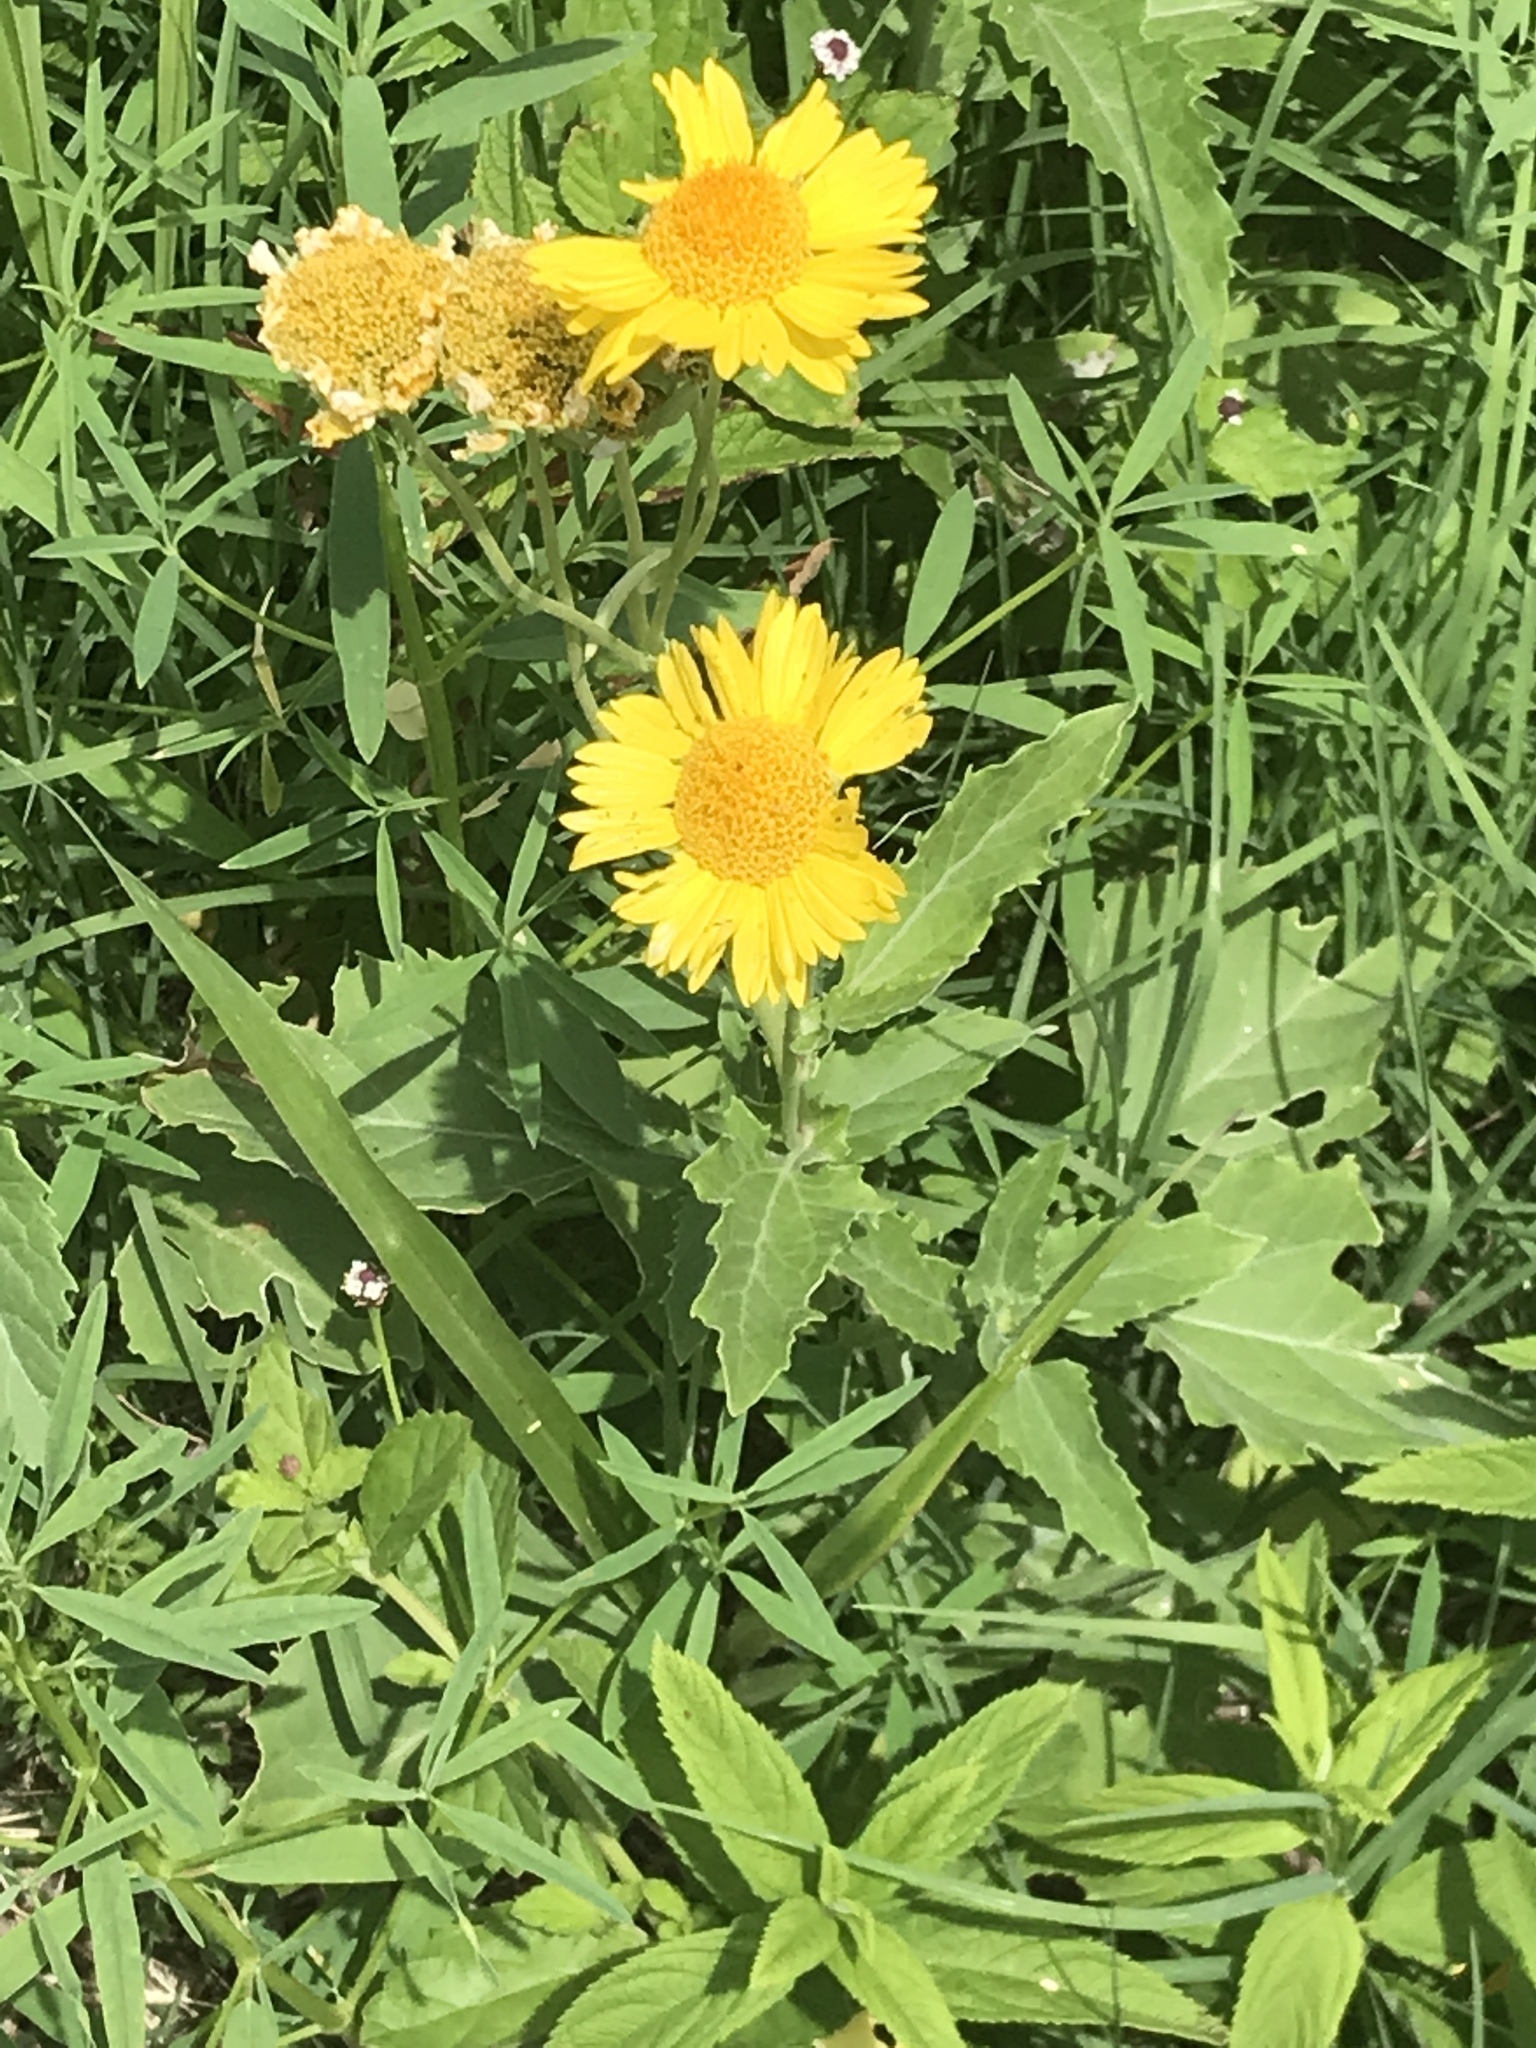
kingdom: Plantae
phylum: Tracheophyta
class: Magnoliopsida
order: Asterales
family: Asteraceae
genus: Verbesina
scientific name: Verbesina encelioides
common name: Golden crownbeard
